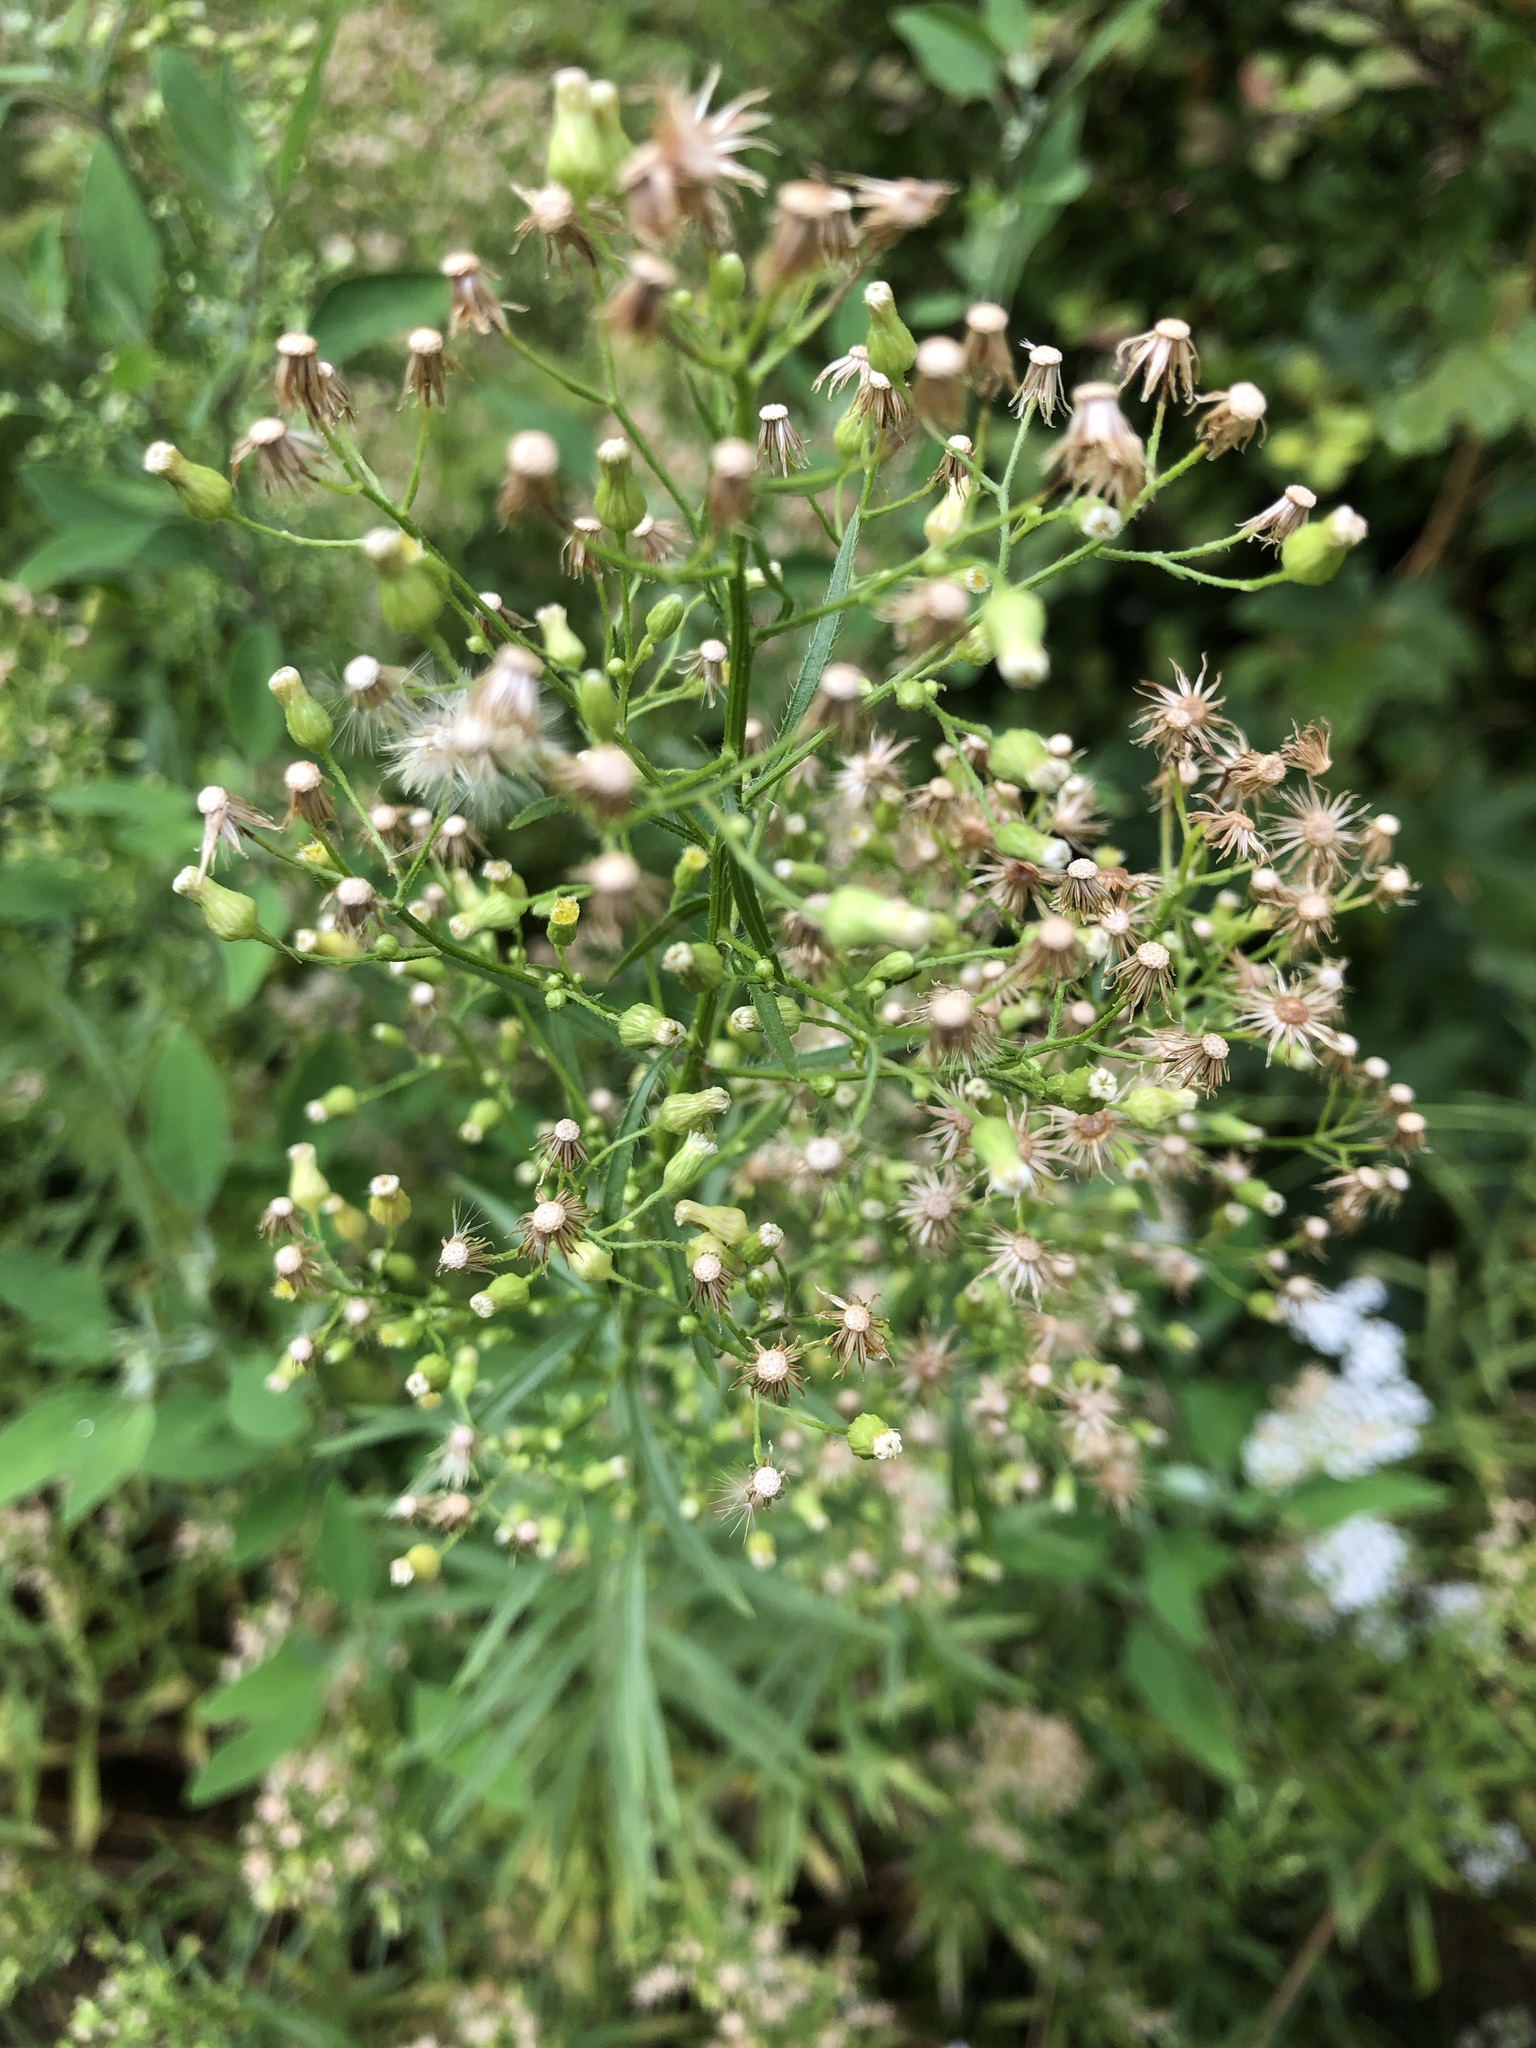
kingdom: Plantae
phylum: Tracheophyta
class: Magnoliopsida
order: Asterales
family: Asteraceae
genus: Erigeron
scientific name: Erigeron canadensis
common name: Canadian fleabane
